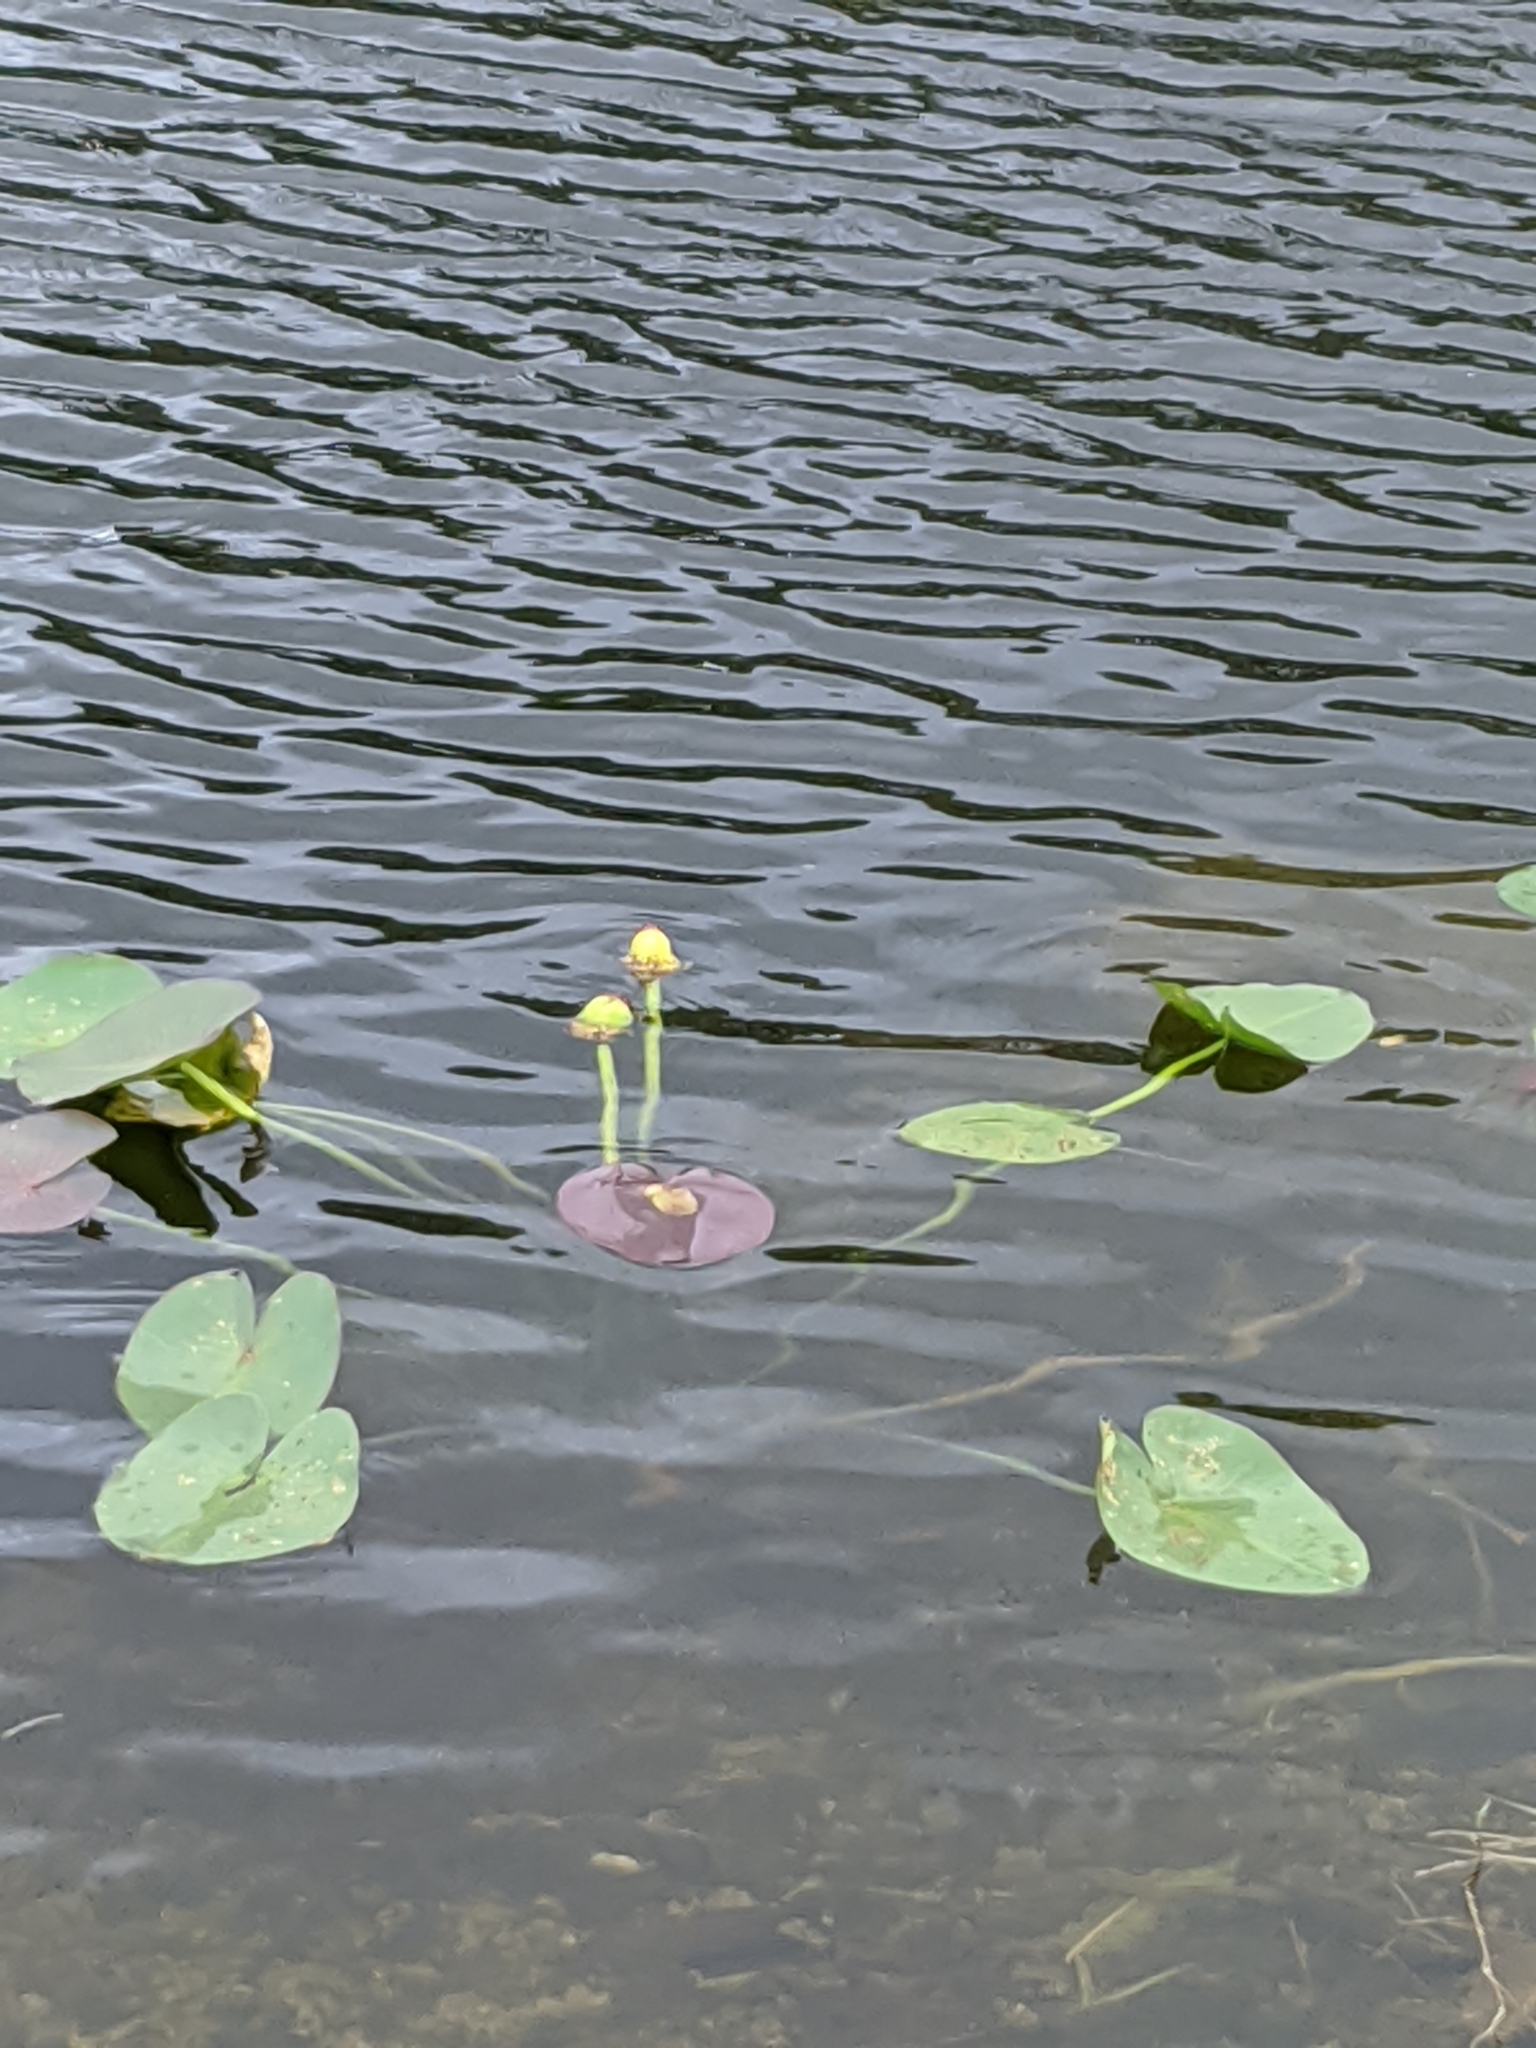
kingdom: Plantae
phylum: Tracheophyta
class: Magnoliopsida
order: Nymphaeales
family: Nymphaeaceae
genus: Nuphar
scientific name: Nuphar advena
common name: Spatter-dock
